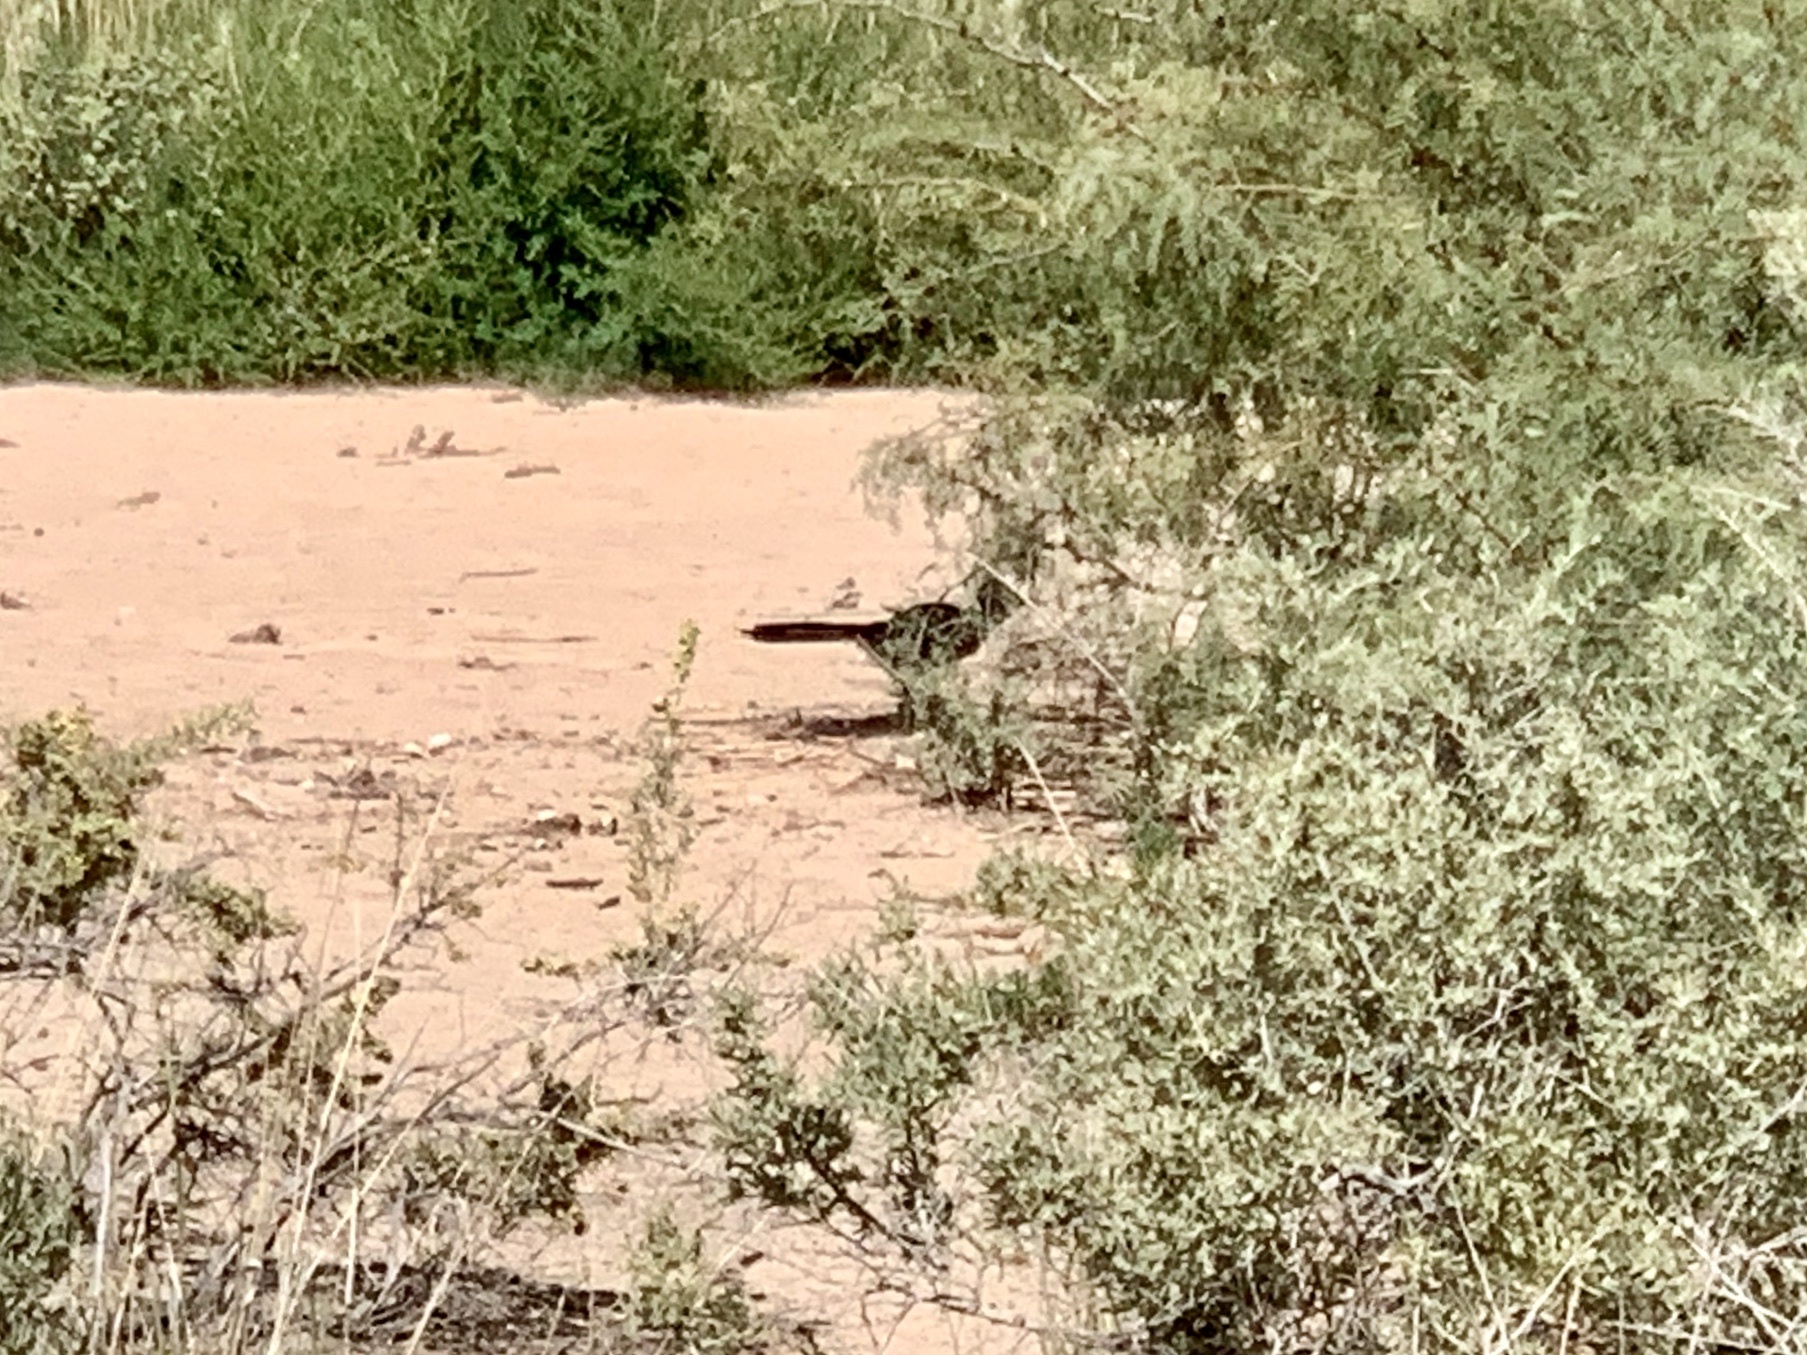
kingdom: Animalia
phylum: Chordata
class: Aves
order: Cuculiformes
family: Cuculidae
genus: Geococcyx
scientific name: Geococcyx californianus
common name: Greater roadrunner
